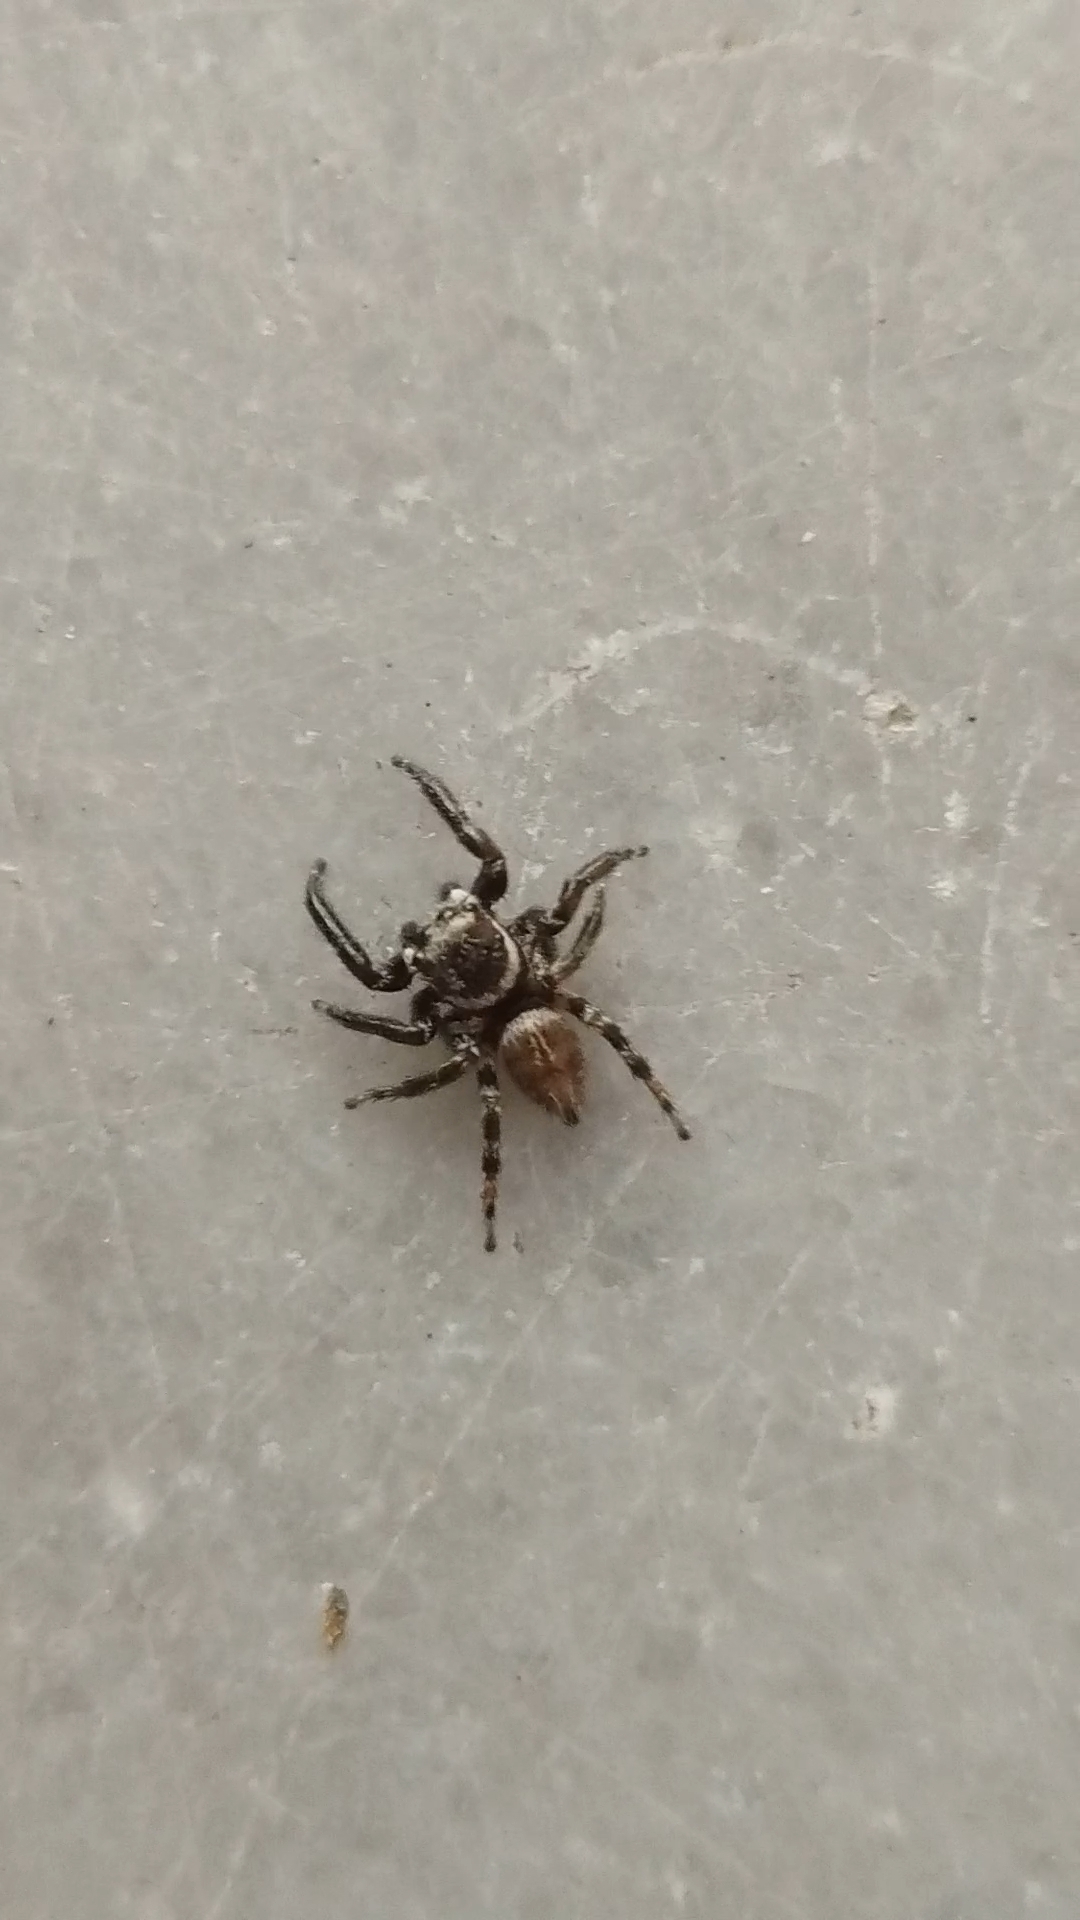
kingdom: Animalia
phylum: Arthropoda
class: Arachnida
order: Araneae
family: Salticidae
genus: Evarcha
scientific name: Evarcha jucunda
